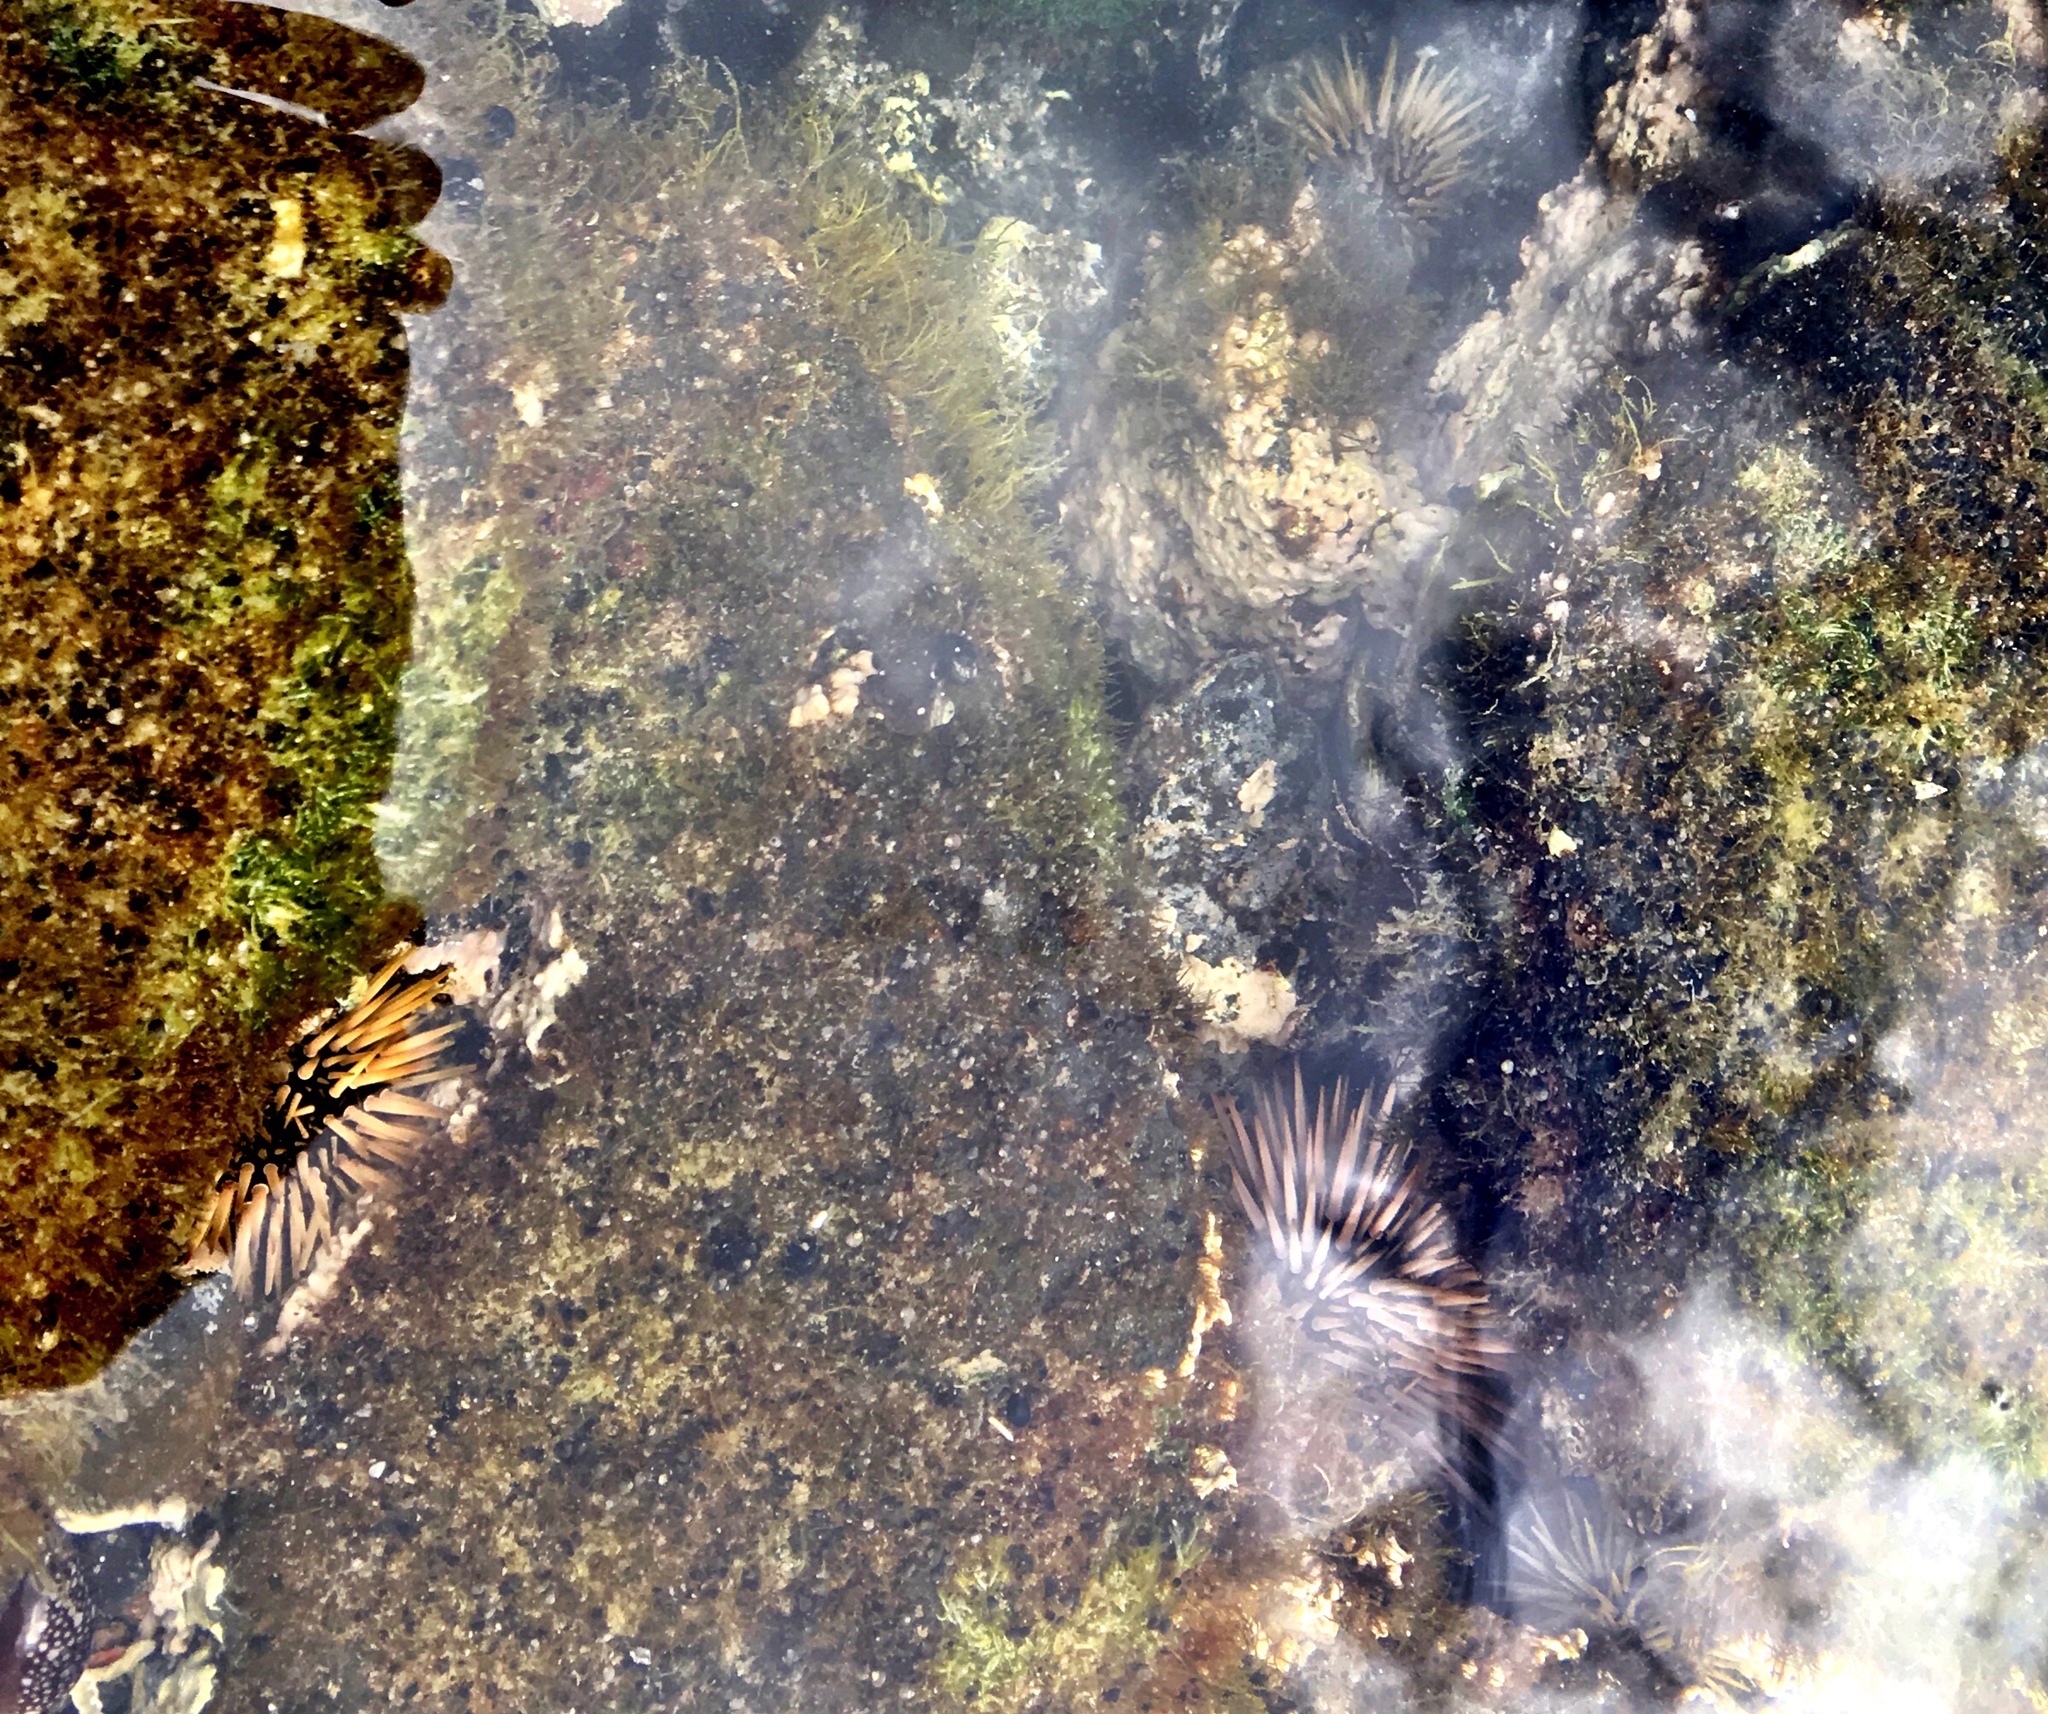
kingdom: Animalia
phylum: Echinodermata
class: Echinoidea
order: Camarodonta
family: Echinometridae
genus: Echinometra
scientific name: Echinometra mathaei
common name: Rock-boring urchin
